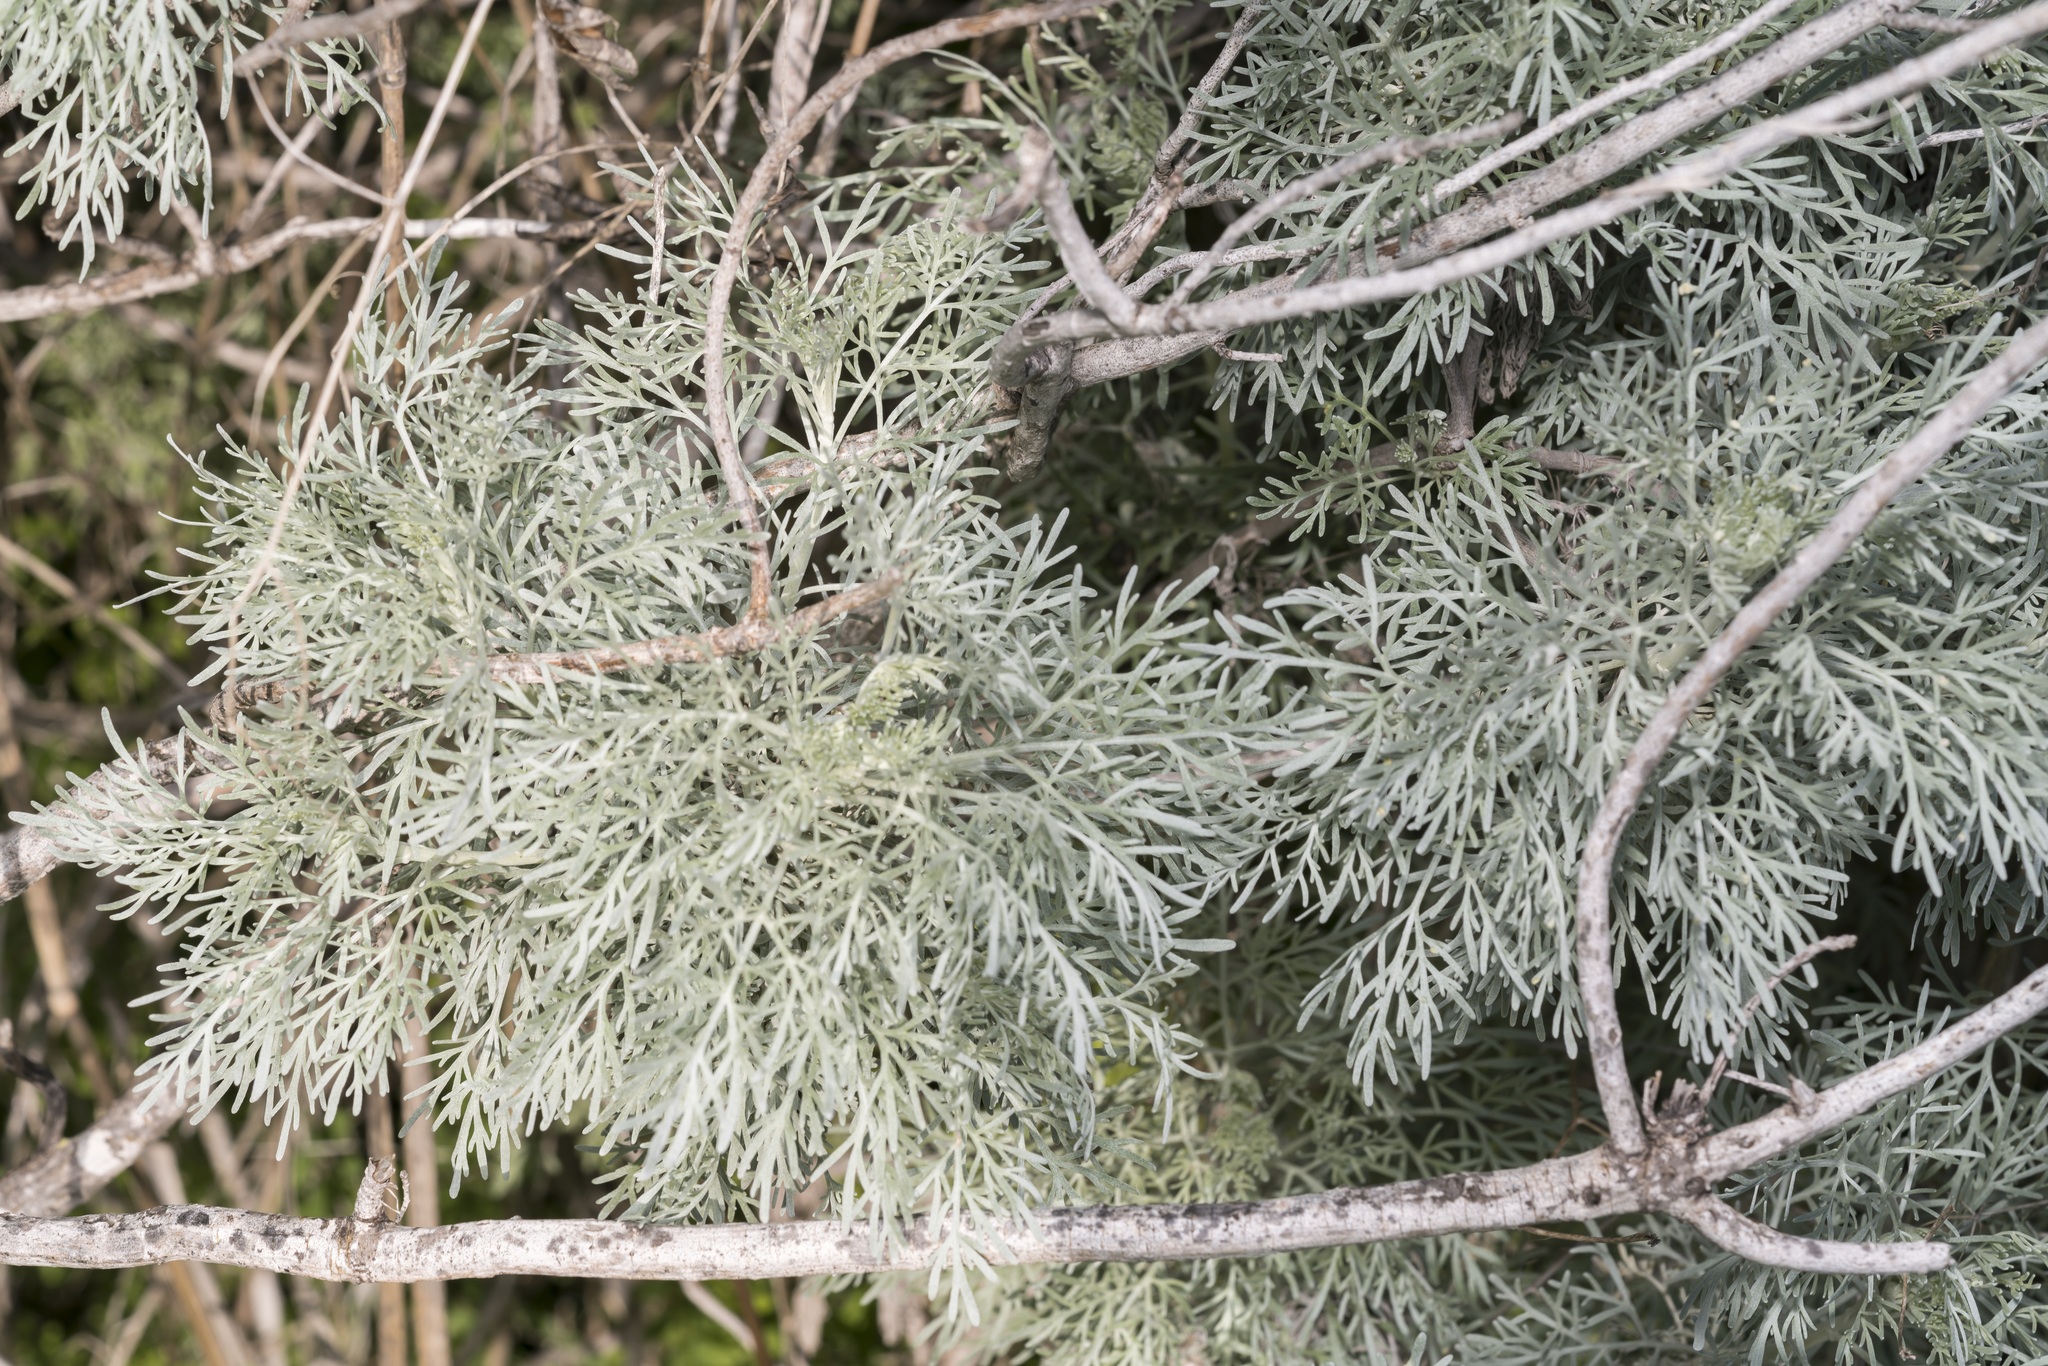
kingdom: Plantae
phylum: Tracheophyta
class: Magnoliopsida
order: Asterales
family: Asteraceae
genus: Artemisia
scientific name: Artemisia arborescens
